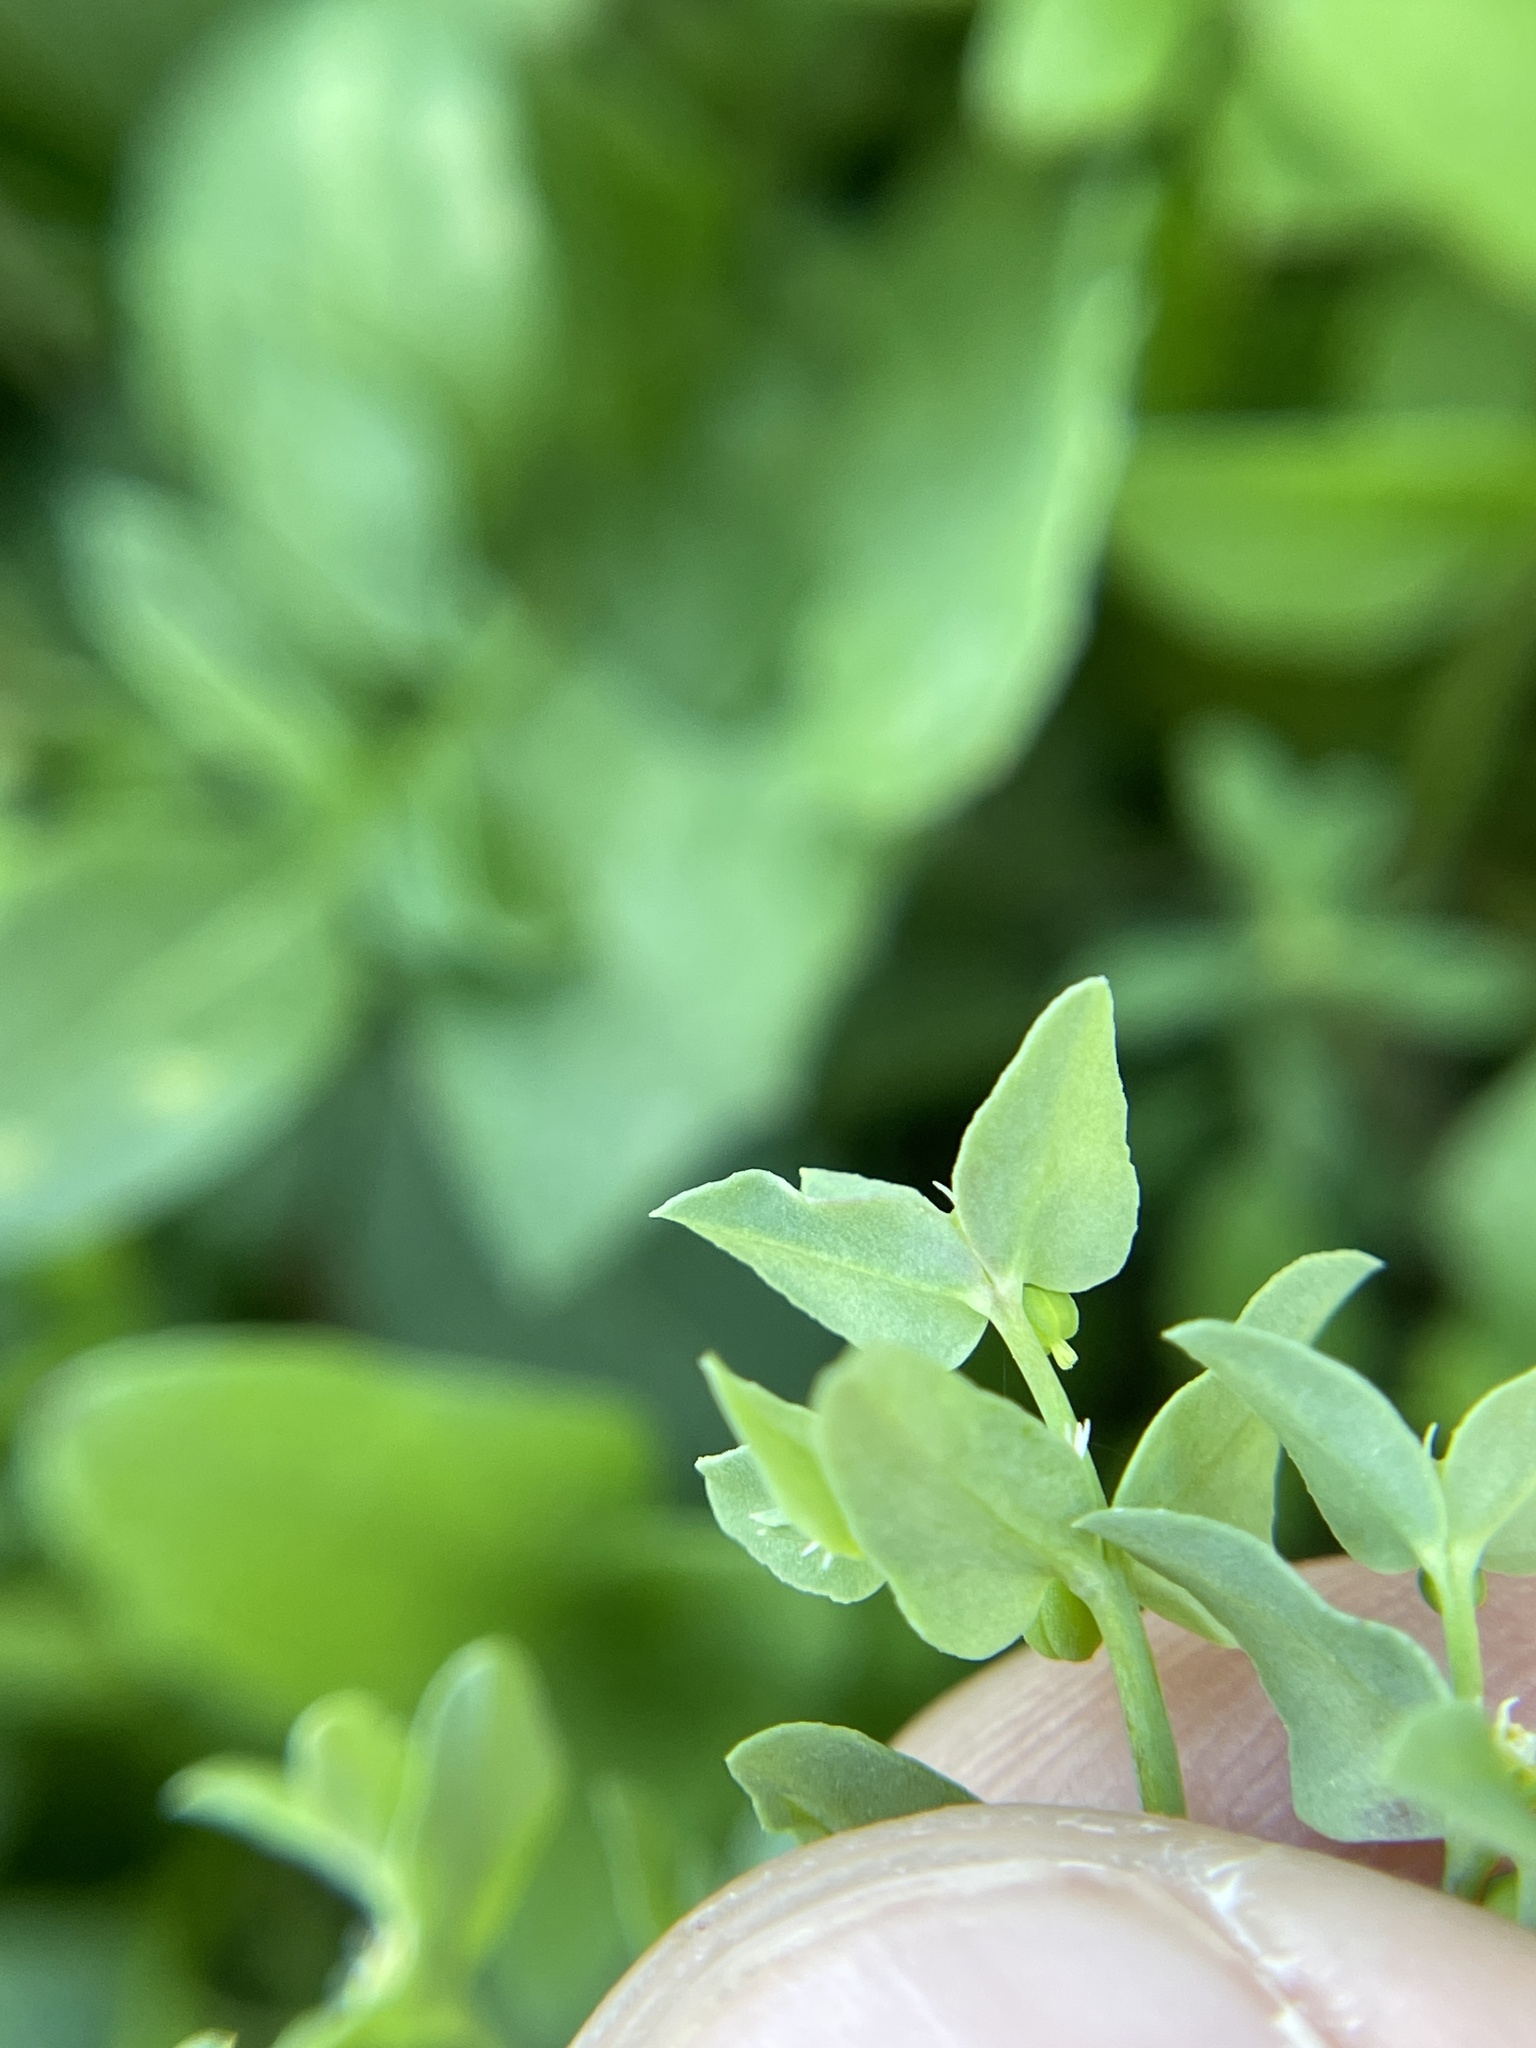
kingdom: Plantae
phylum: Tracheophyta
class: Magnoliopsida
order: Malpighiales
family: Euphorbiaceae
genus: Euphorbia
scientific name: Euphorbia peplidion
